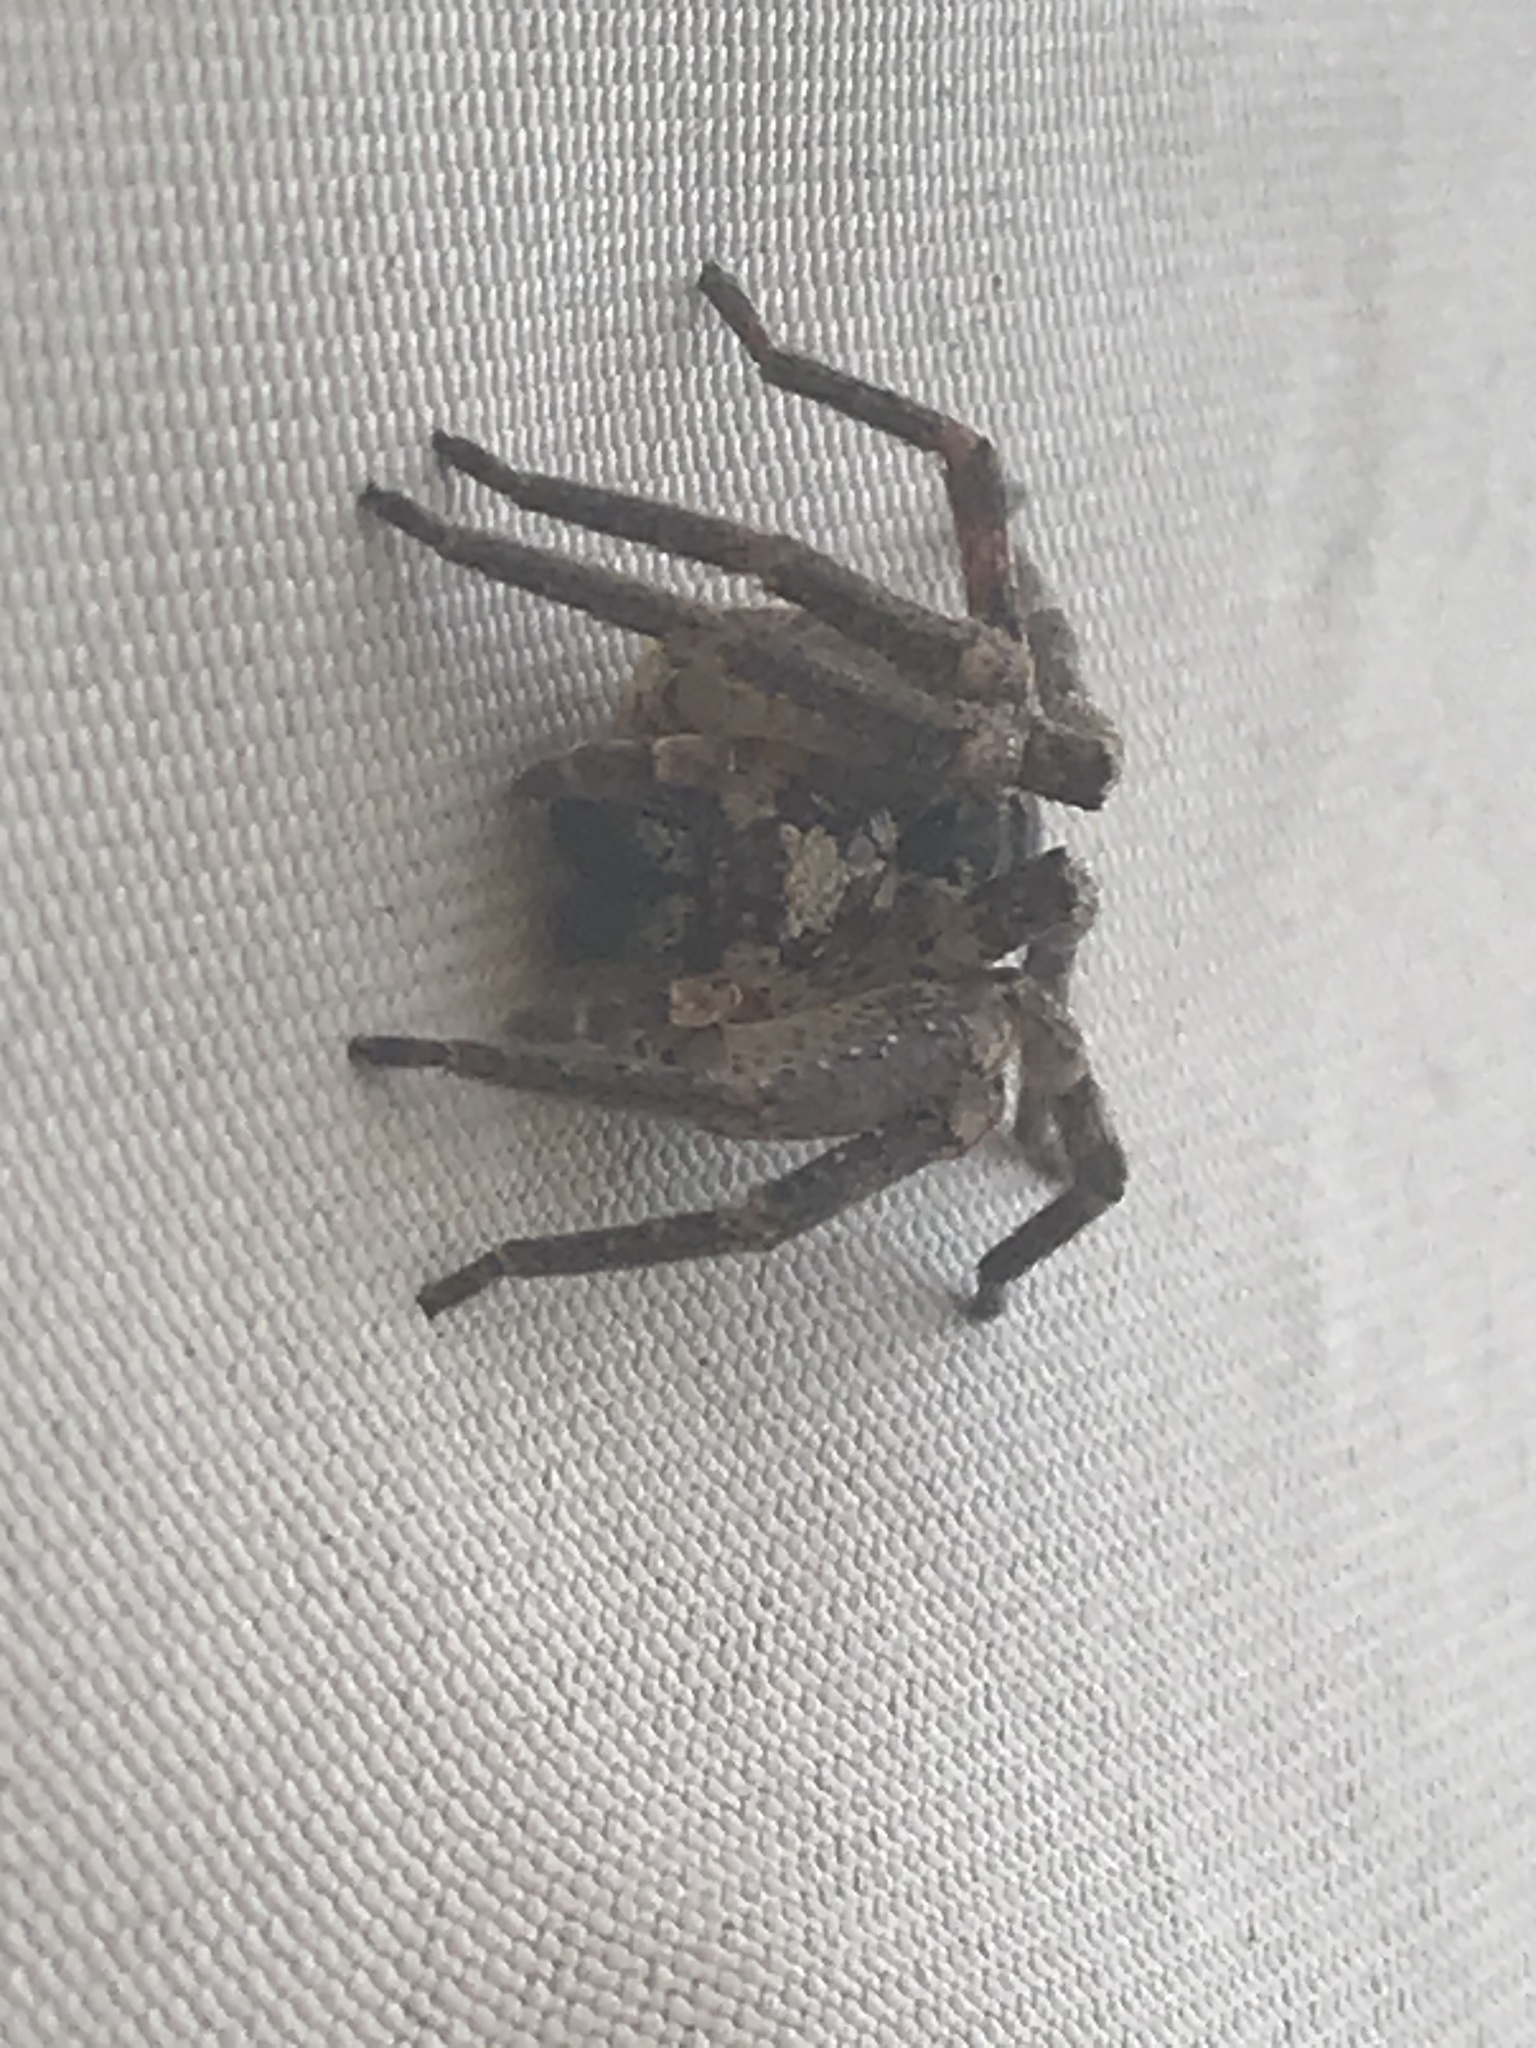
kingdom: Animalia
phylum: Arthropoda
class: Arachnida
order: Araneae
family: Zoropsidae
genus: Zoropsis
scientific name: Zoropsis spinimana
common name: Zoropsid spider
